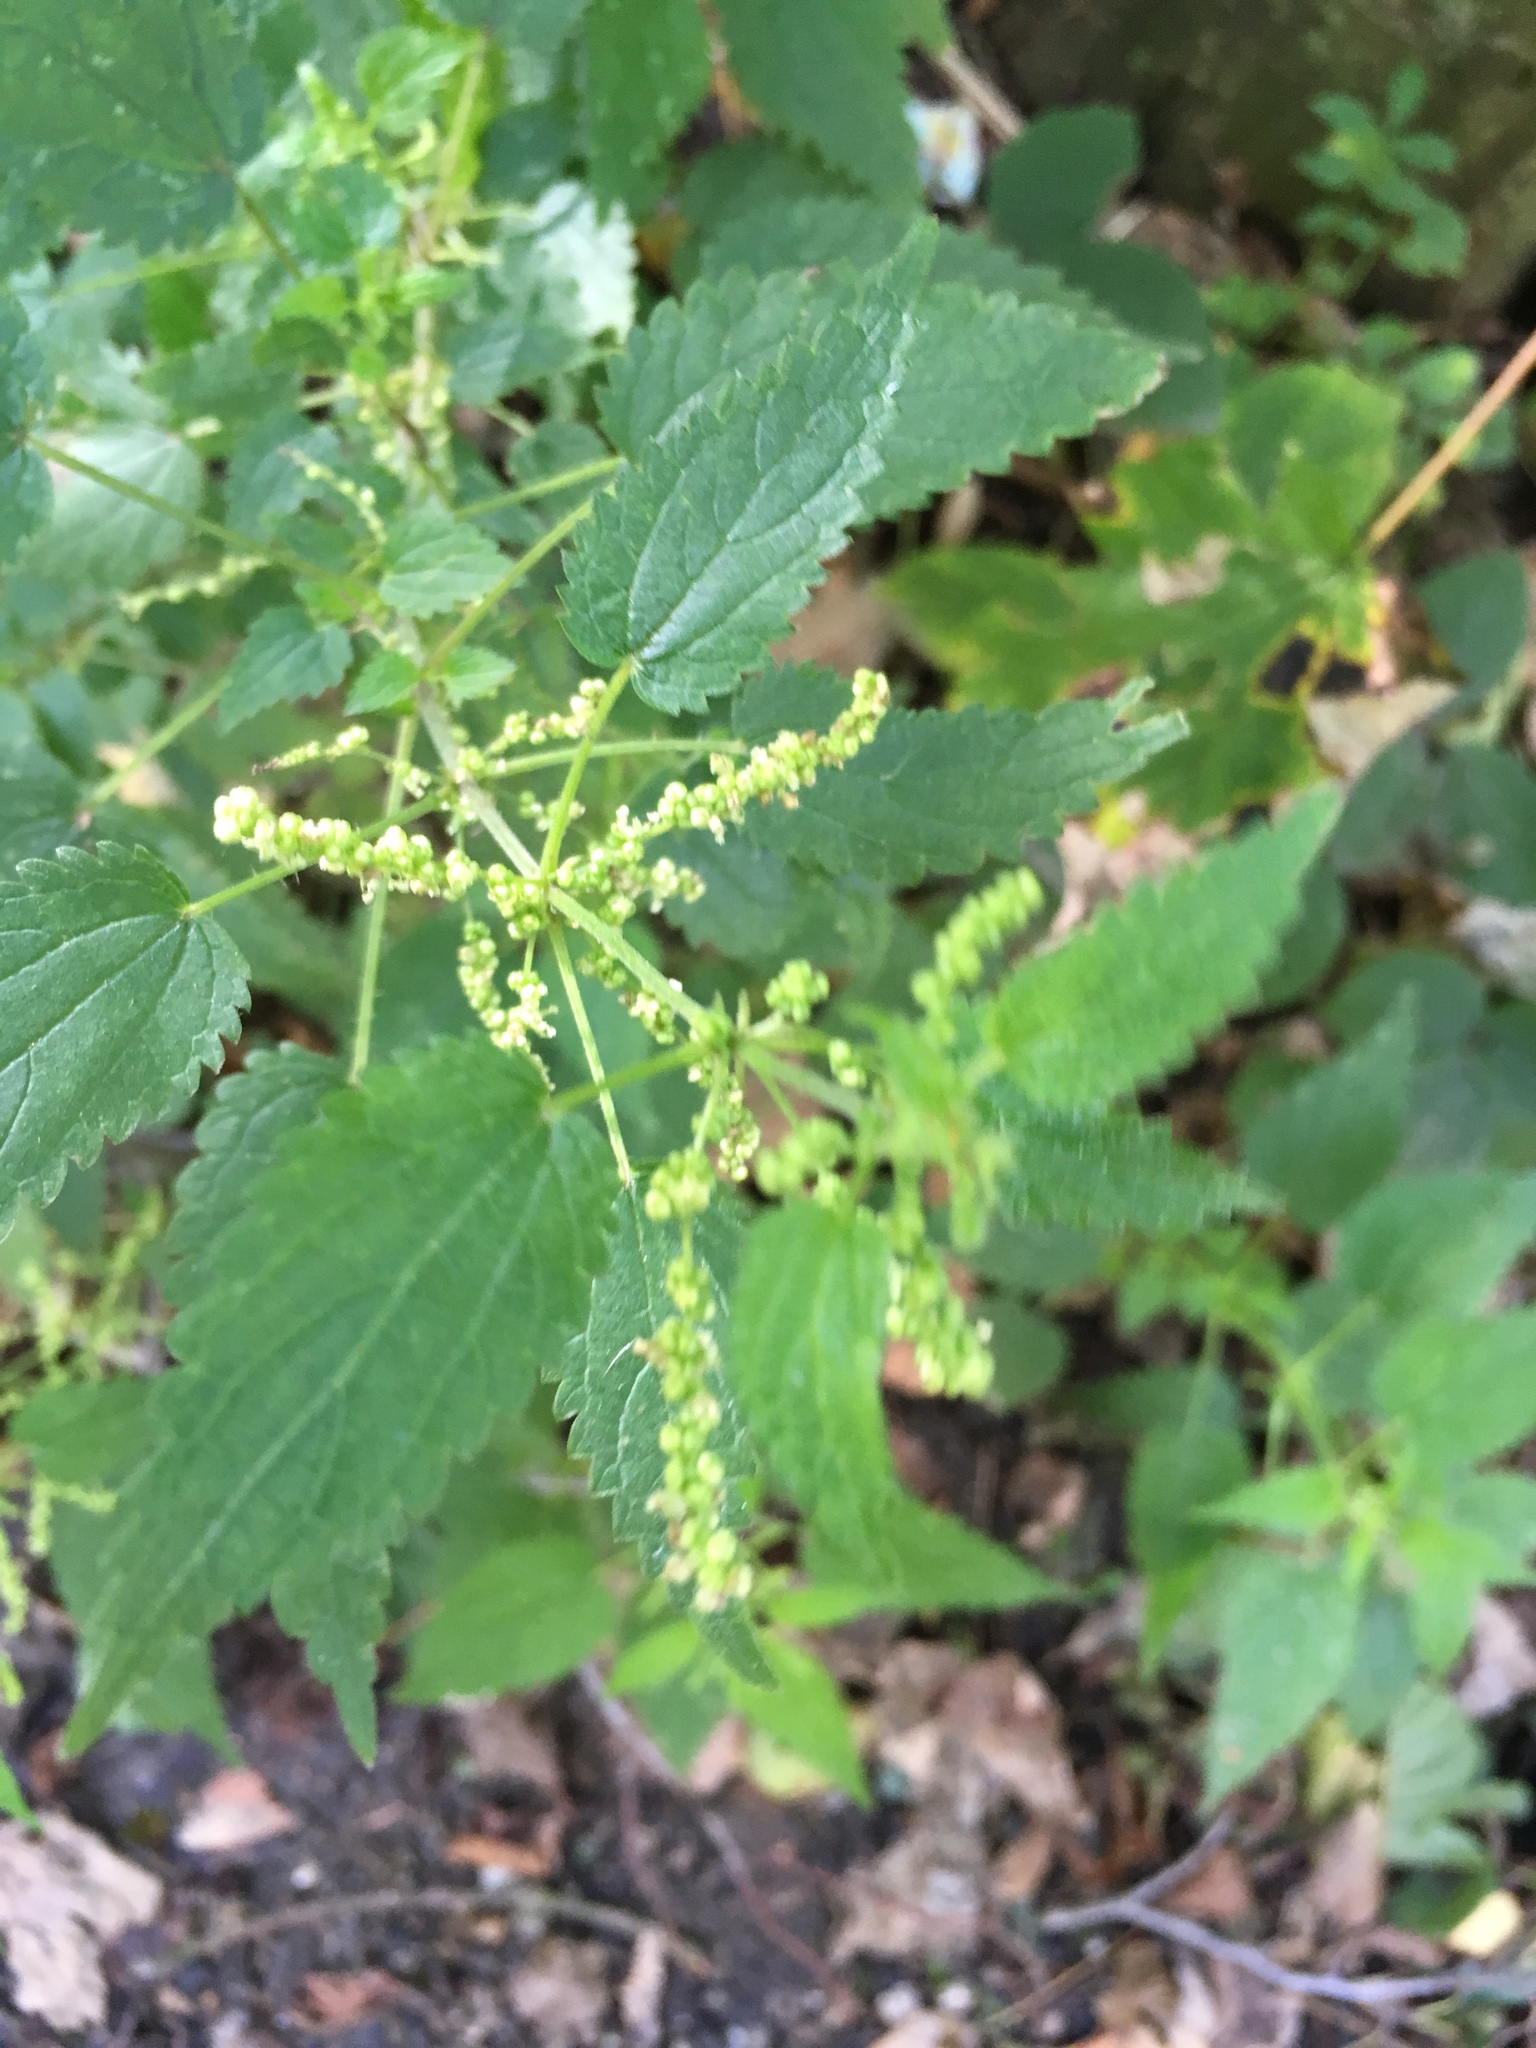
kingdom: Plantae
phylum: Tracheophyta
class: Magnoliopsida
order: Rosales
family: Urticaceae
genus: Urtica
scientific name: Urtica dioica
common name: Common nettle
